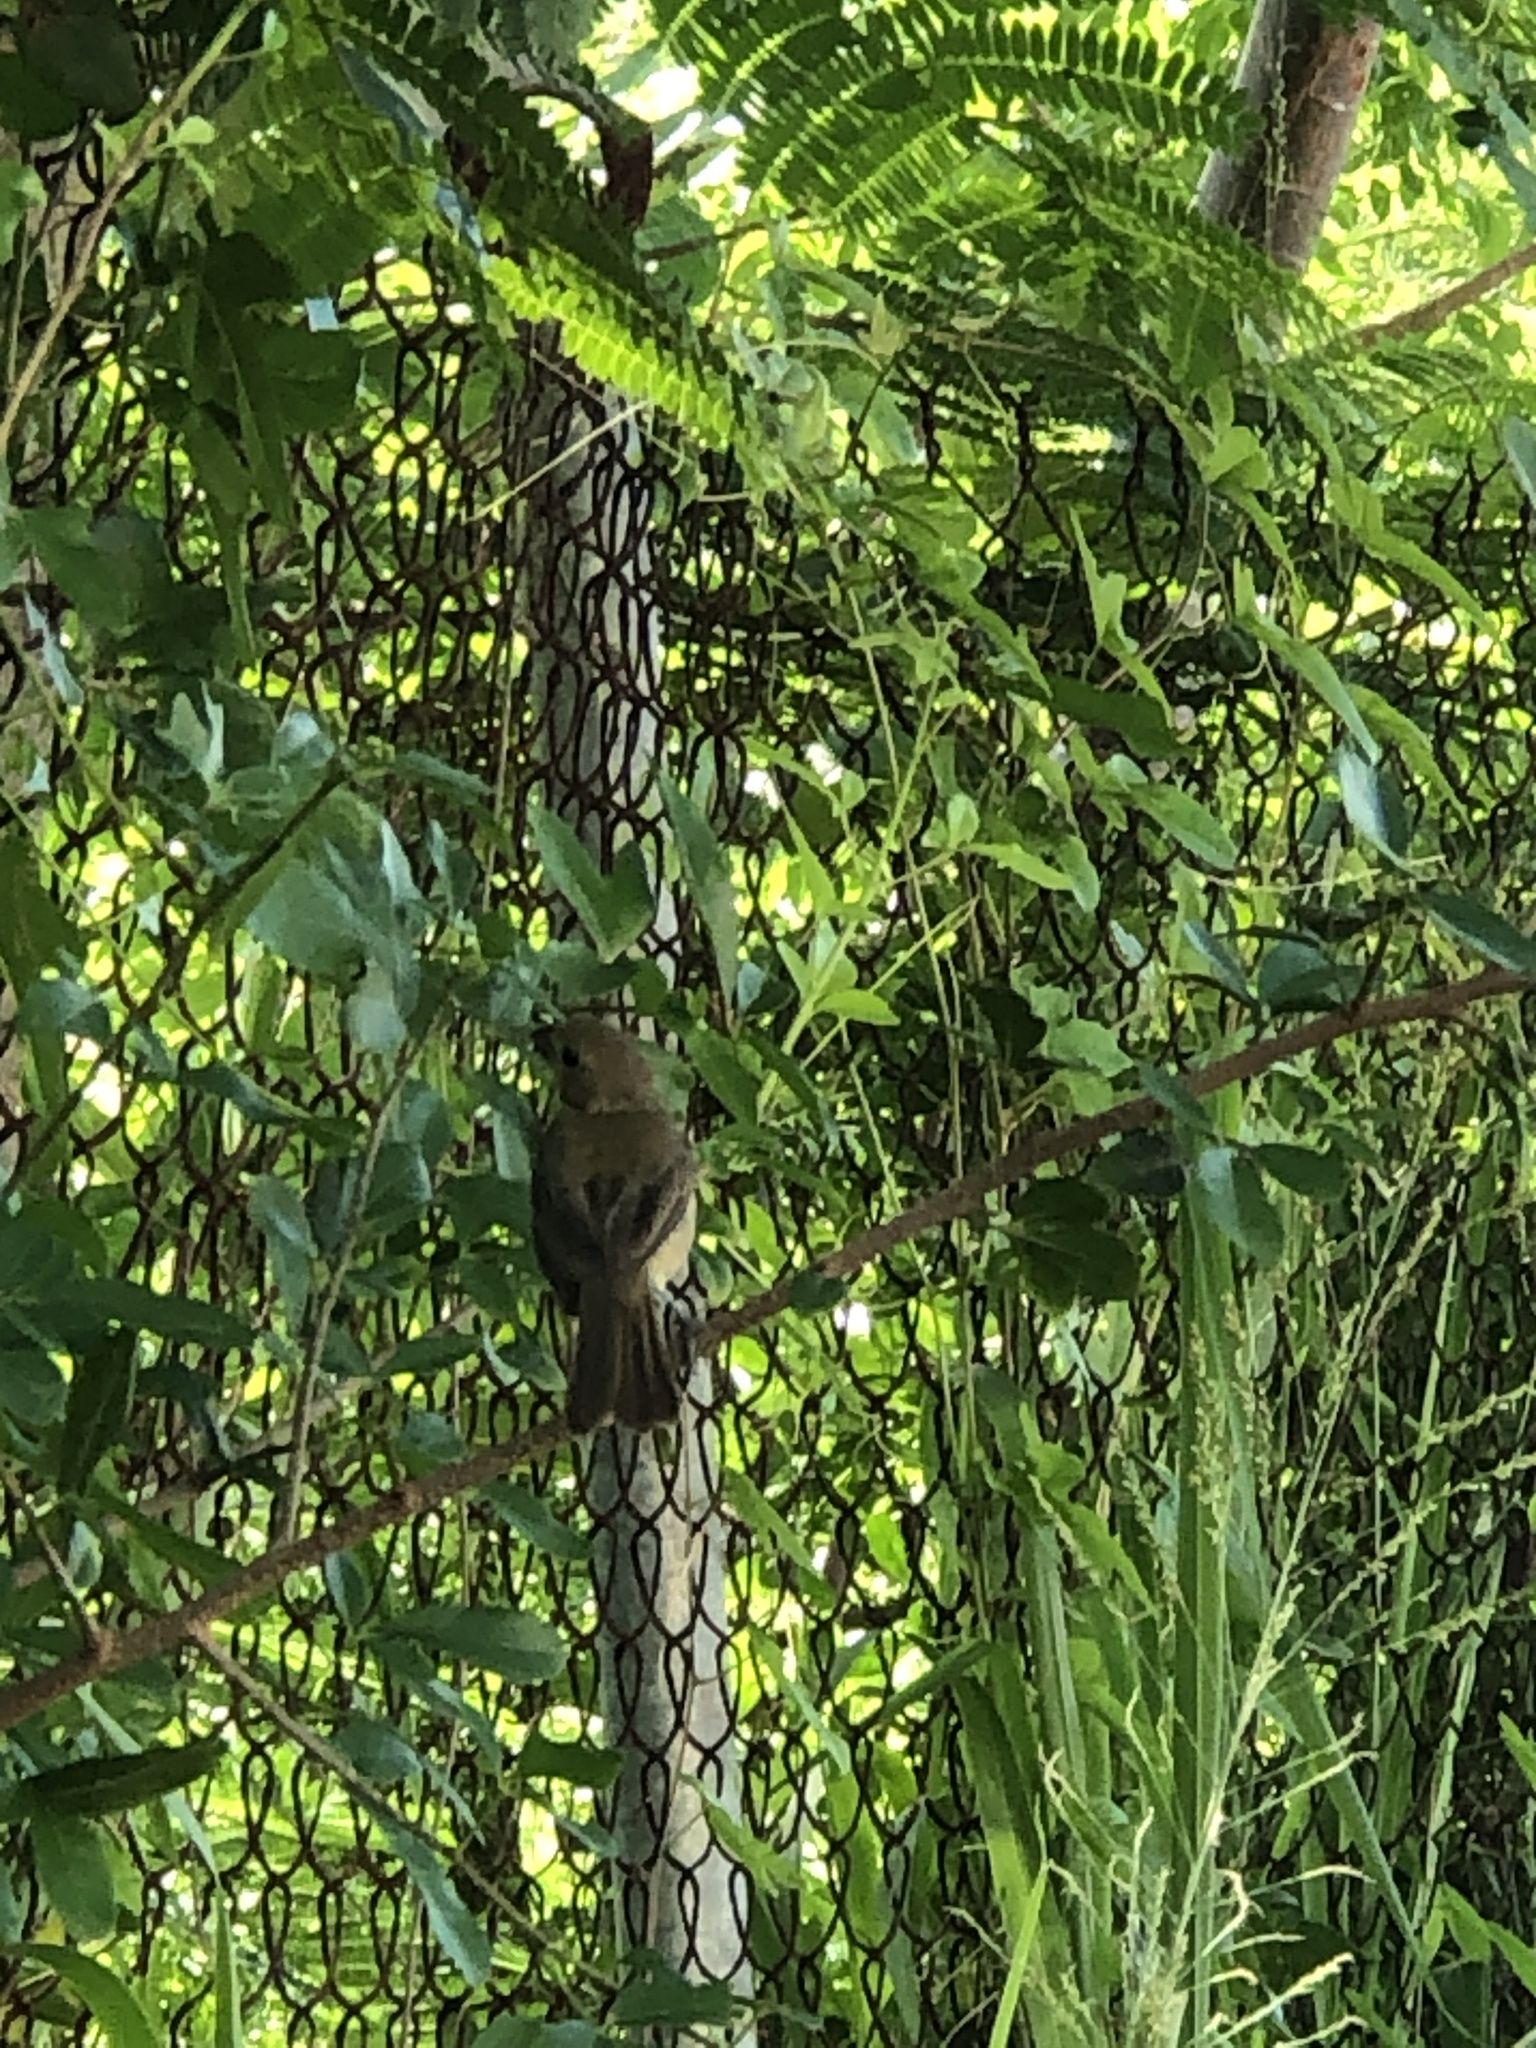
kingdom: Animalia
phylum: Chordata
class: Aves
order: Passeriformes
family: Thraupidae
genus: Sporophila
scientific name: Sporophila torqueola
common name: White-collared seedeater
